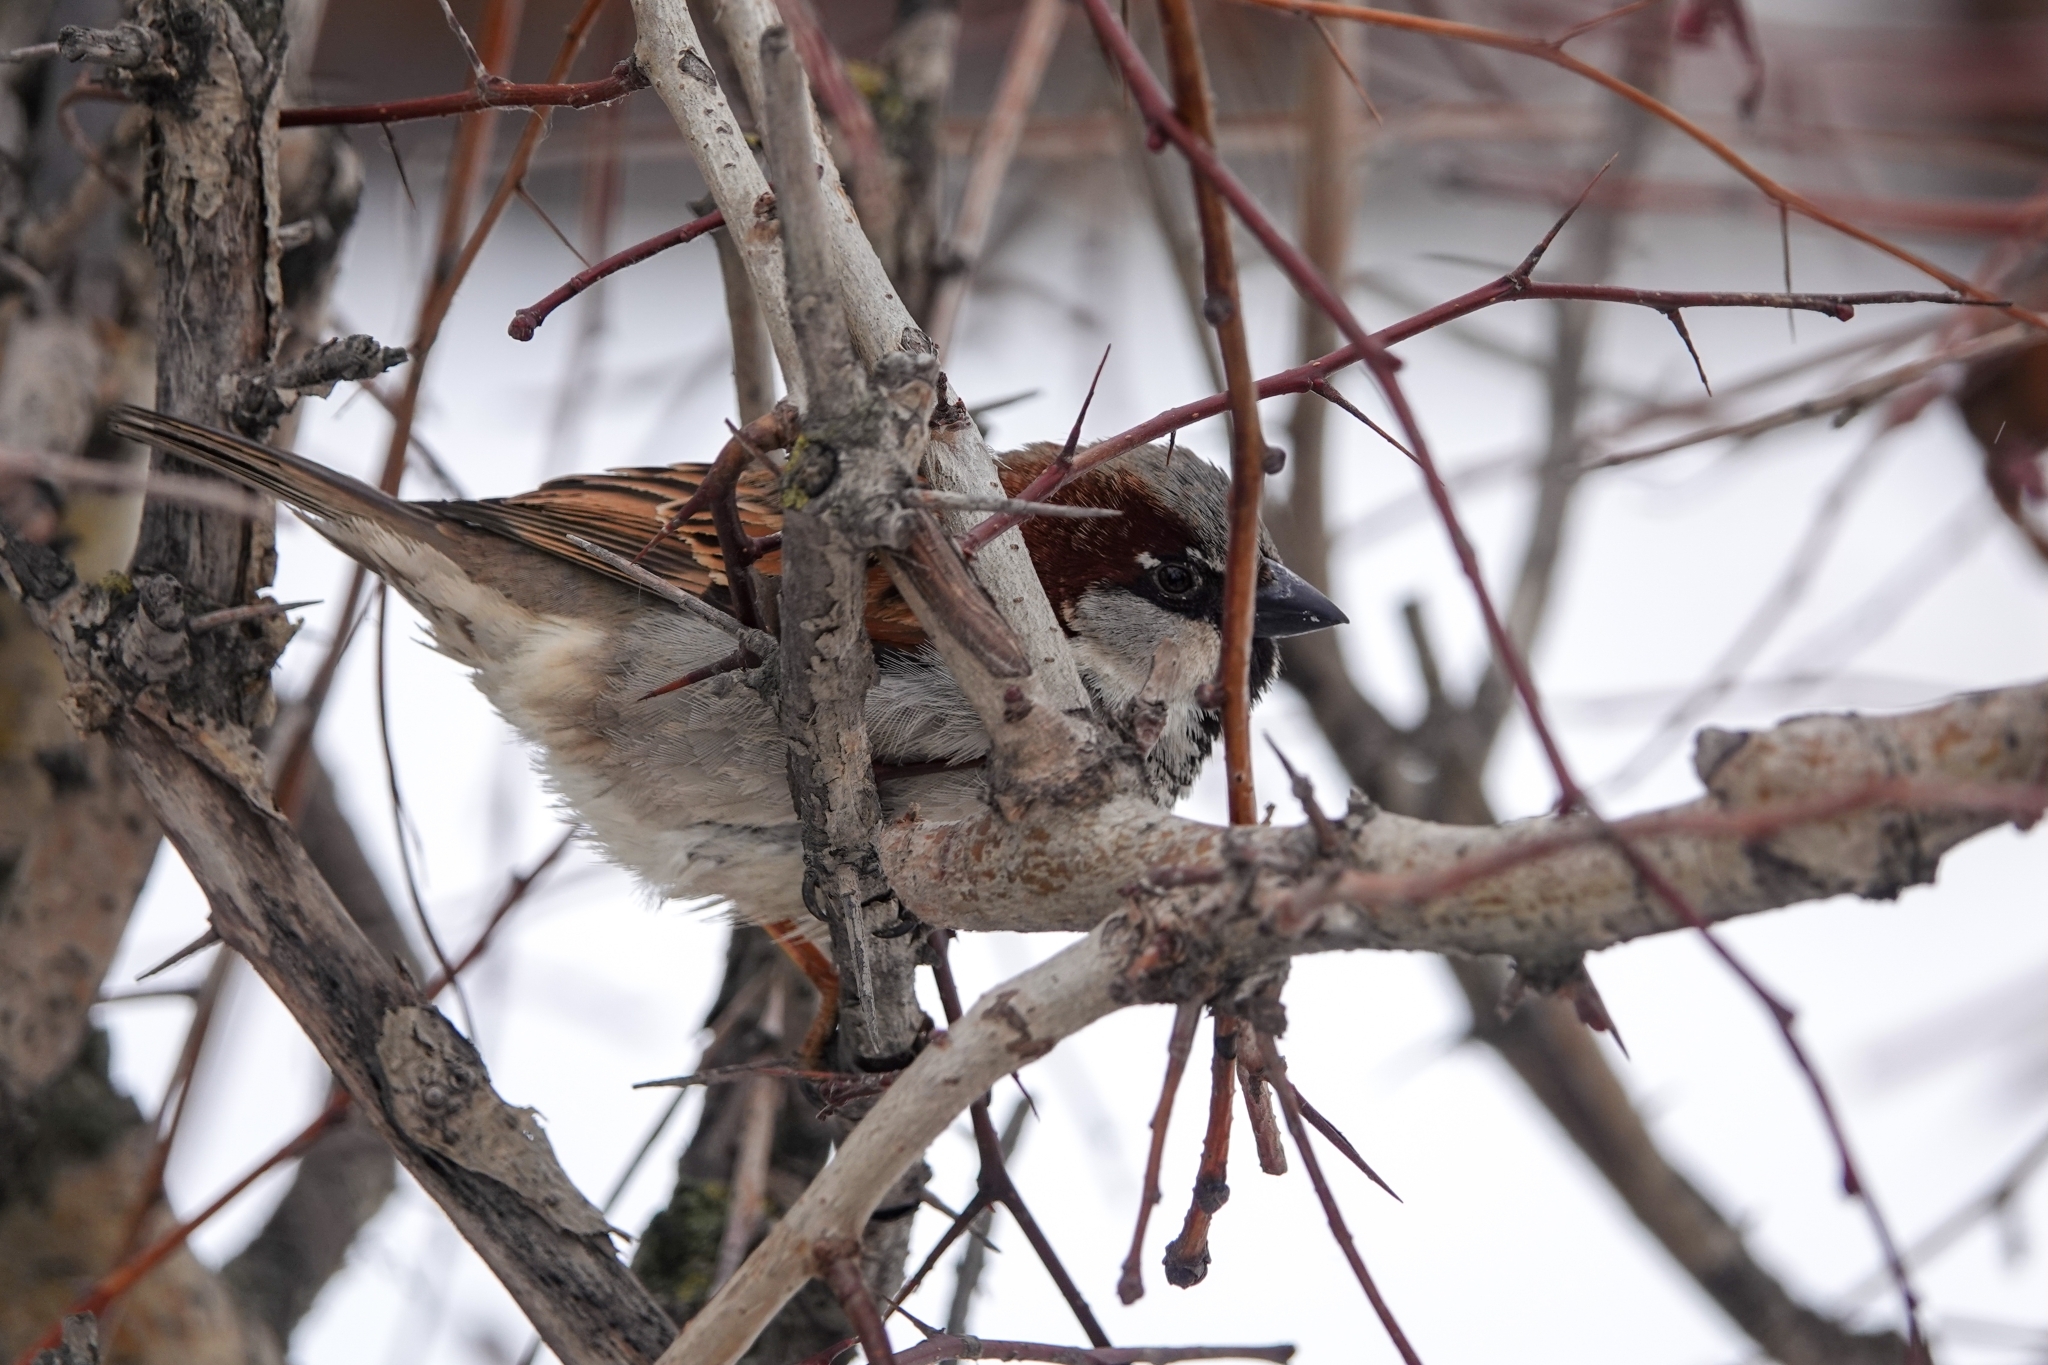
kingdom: Animalia
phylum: Chordata
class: Aves
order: Passeriformes
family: Passeridae
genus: Passer
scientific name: Passer domesticus
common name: House sparrow
